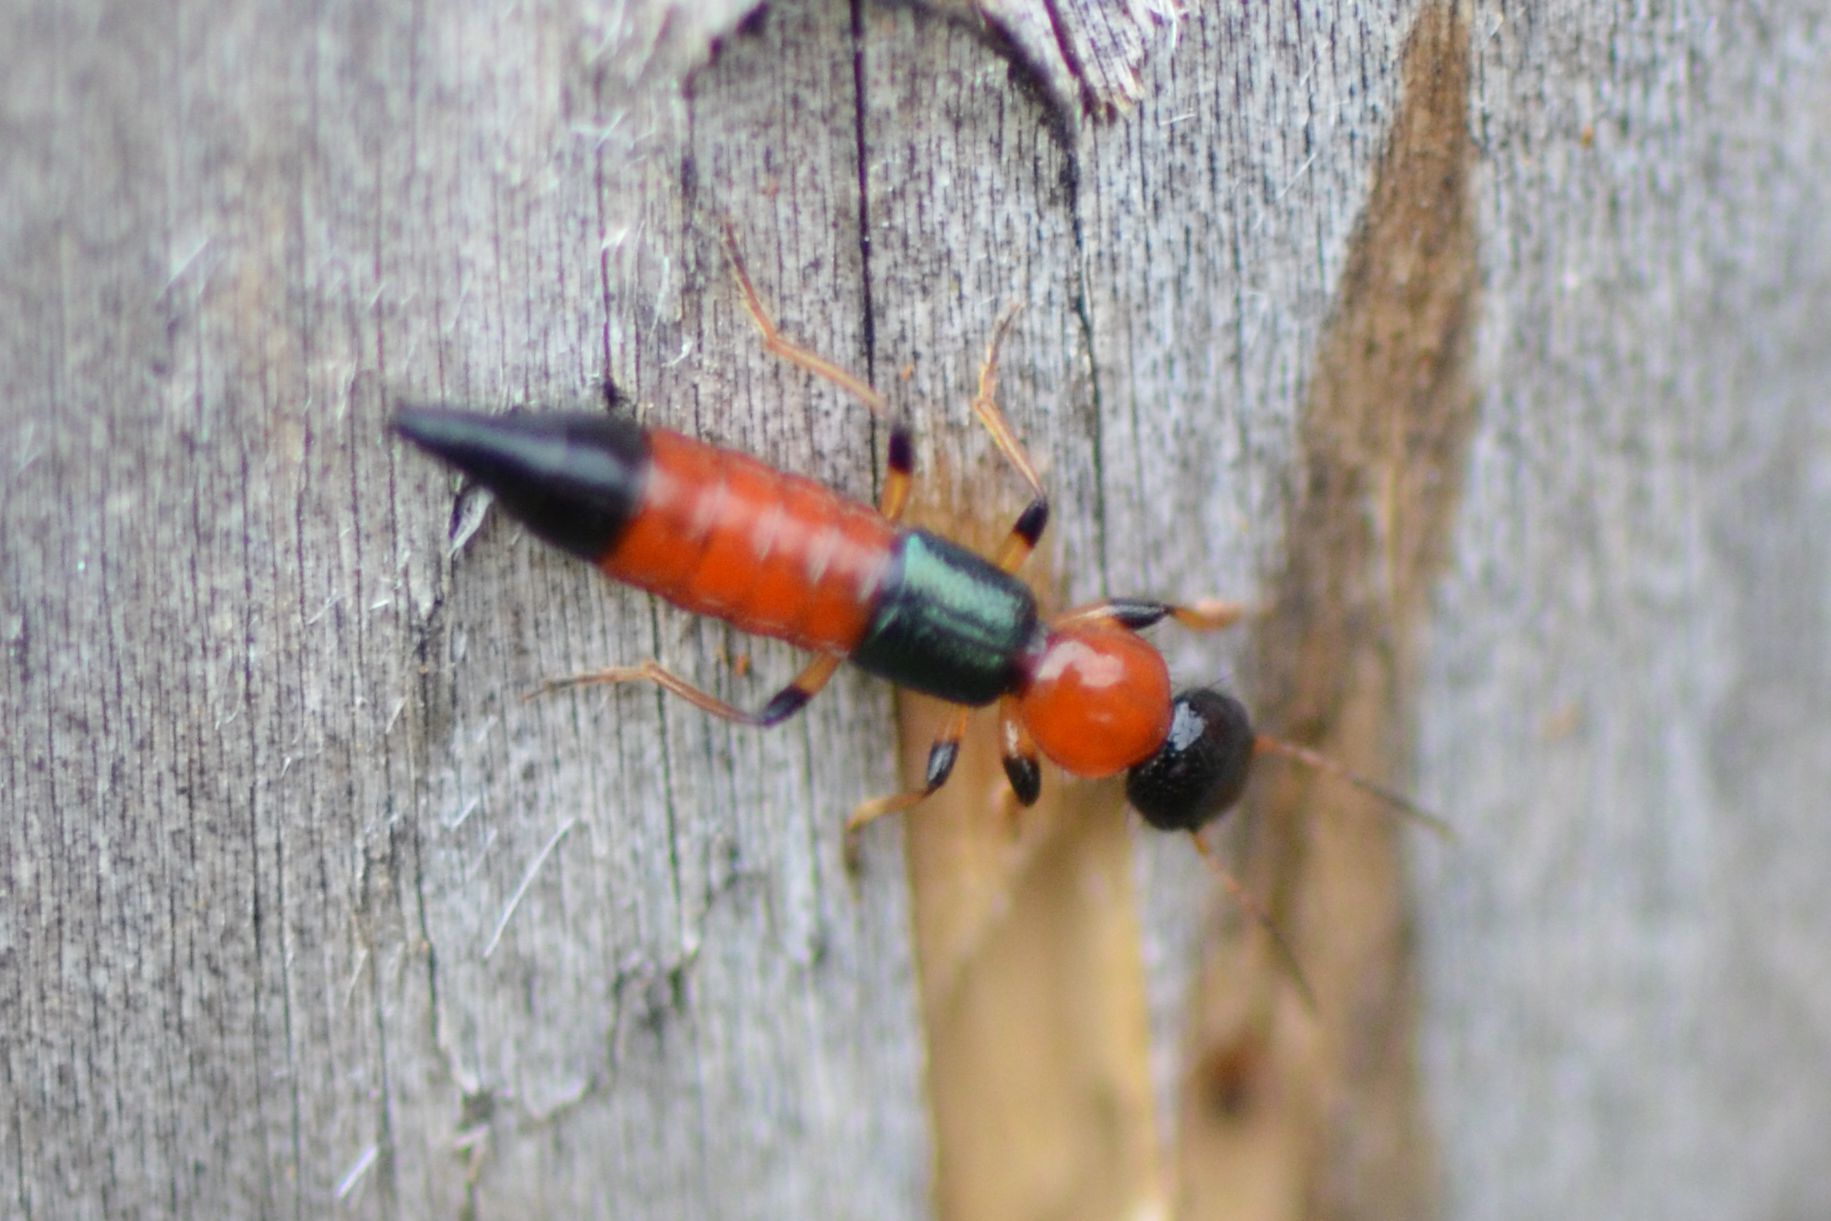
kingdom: Animalia
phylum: Arthropoda
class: Insecta
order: Coleoptera
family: Staphylinidae
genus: Paederus
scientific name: Paederus littoralis
